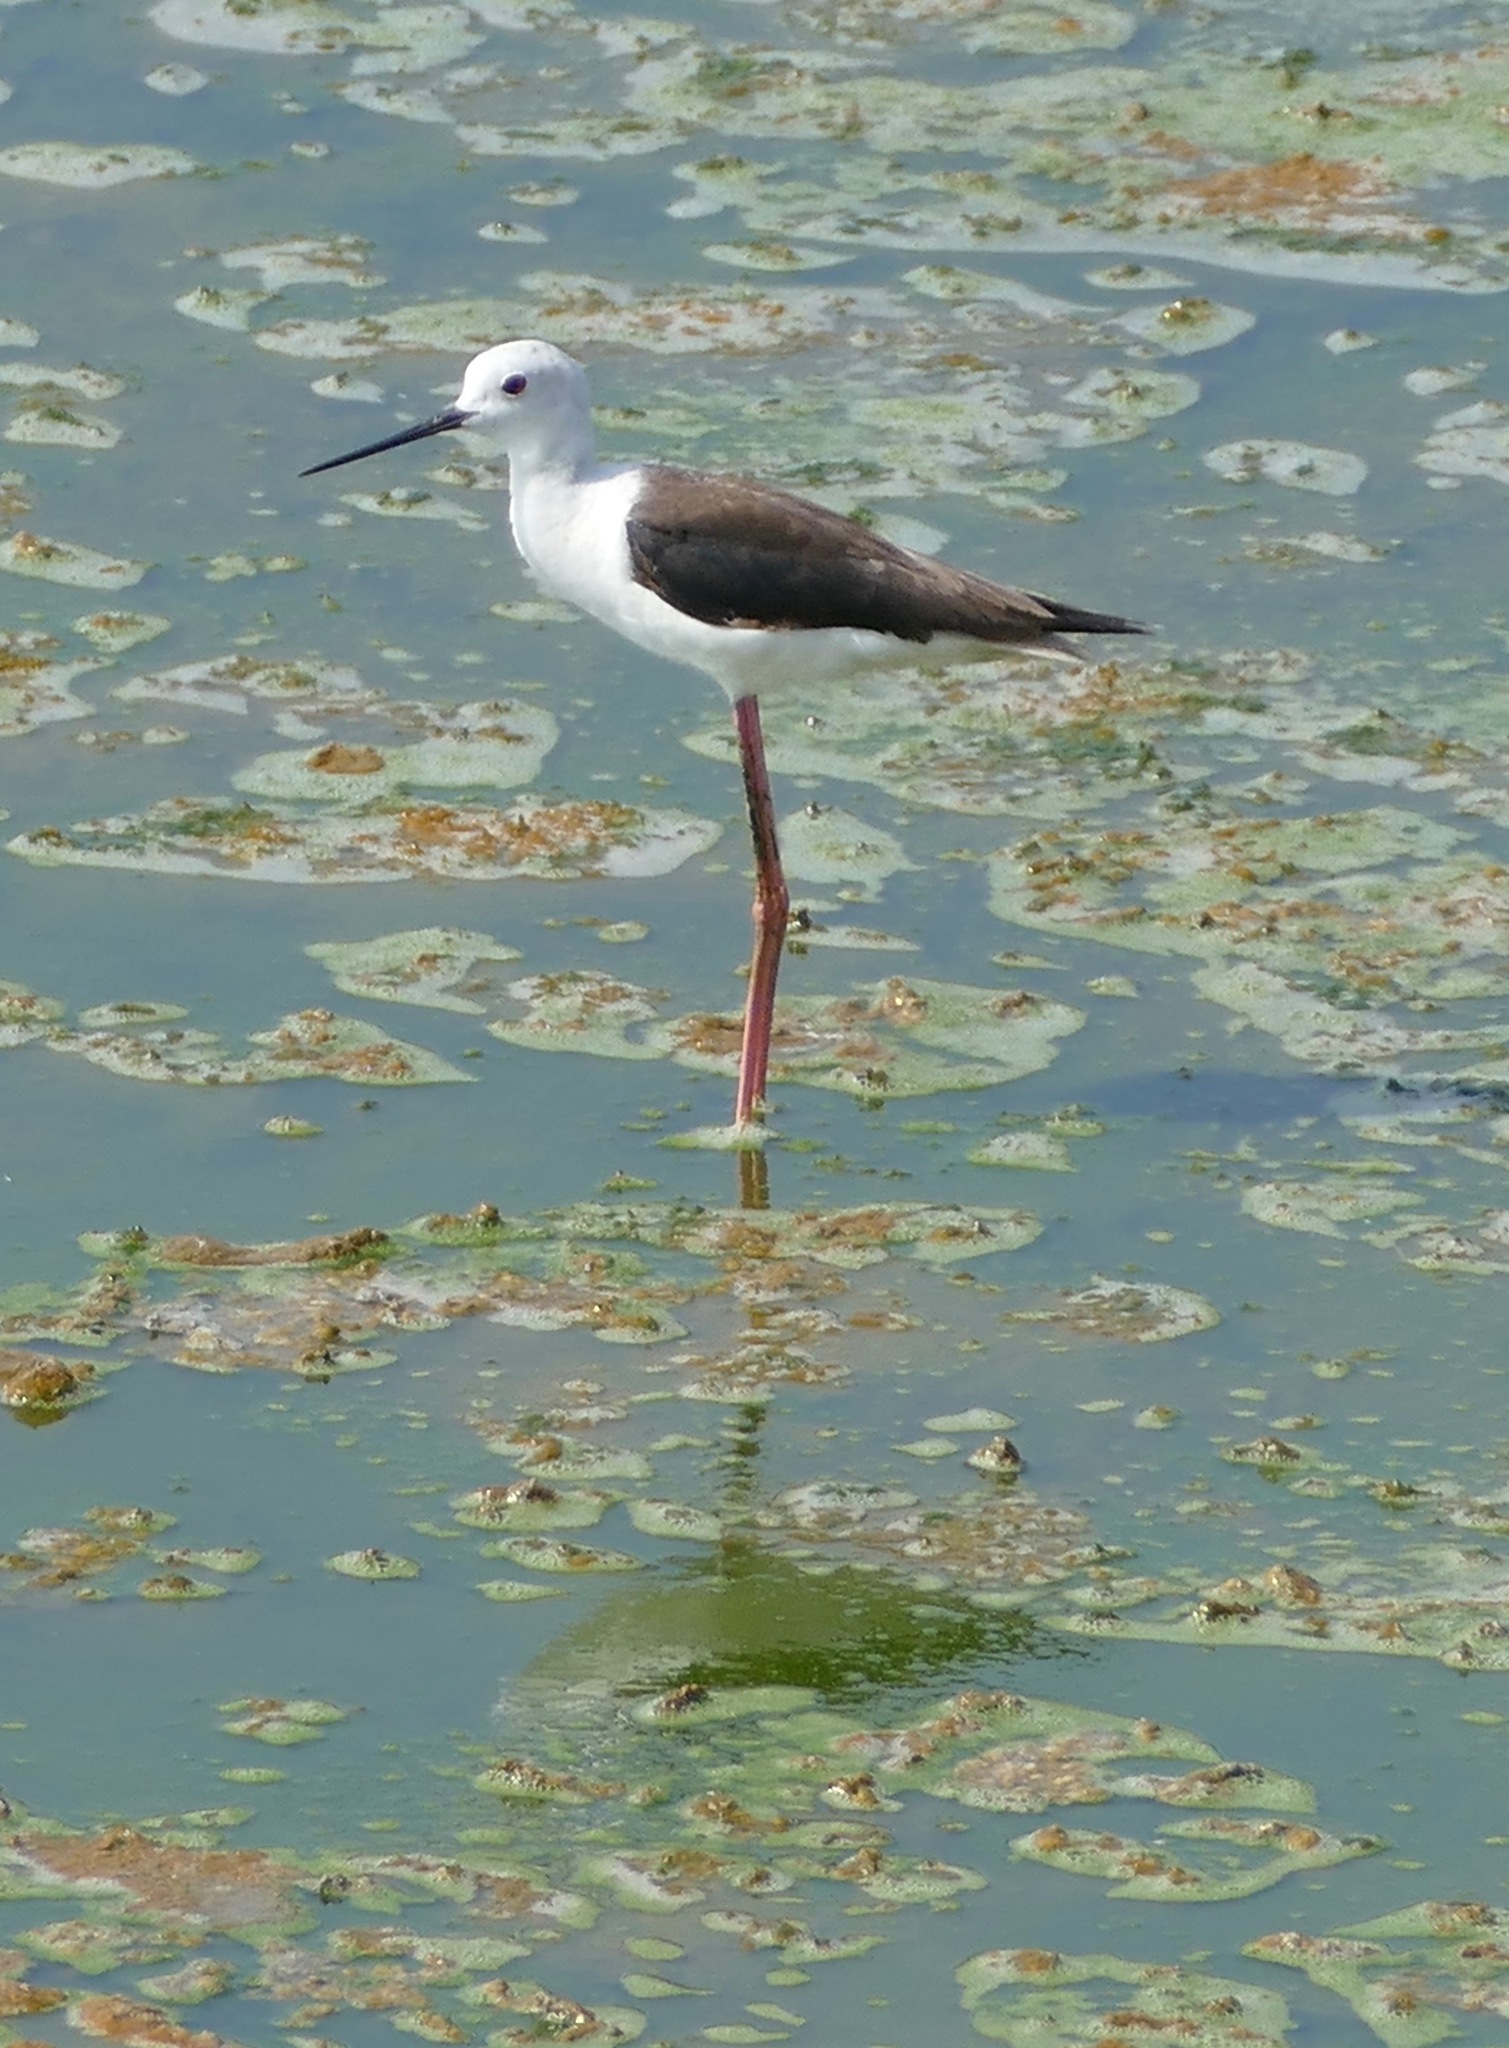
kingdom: Animalia
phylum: Chordata
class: Aves
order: Charadriiformes
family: Recurvirostridae
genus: Himantopus
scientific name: Himantopus himantopus
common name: Black-winged stilt
